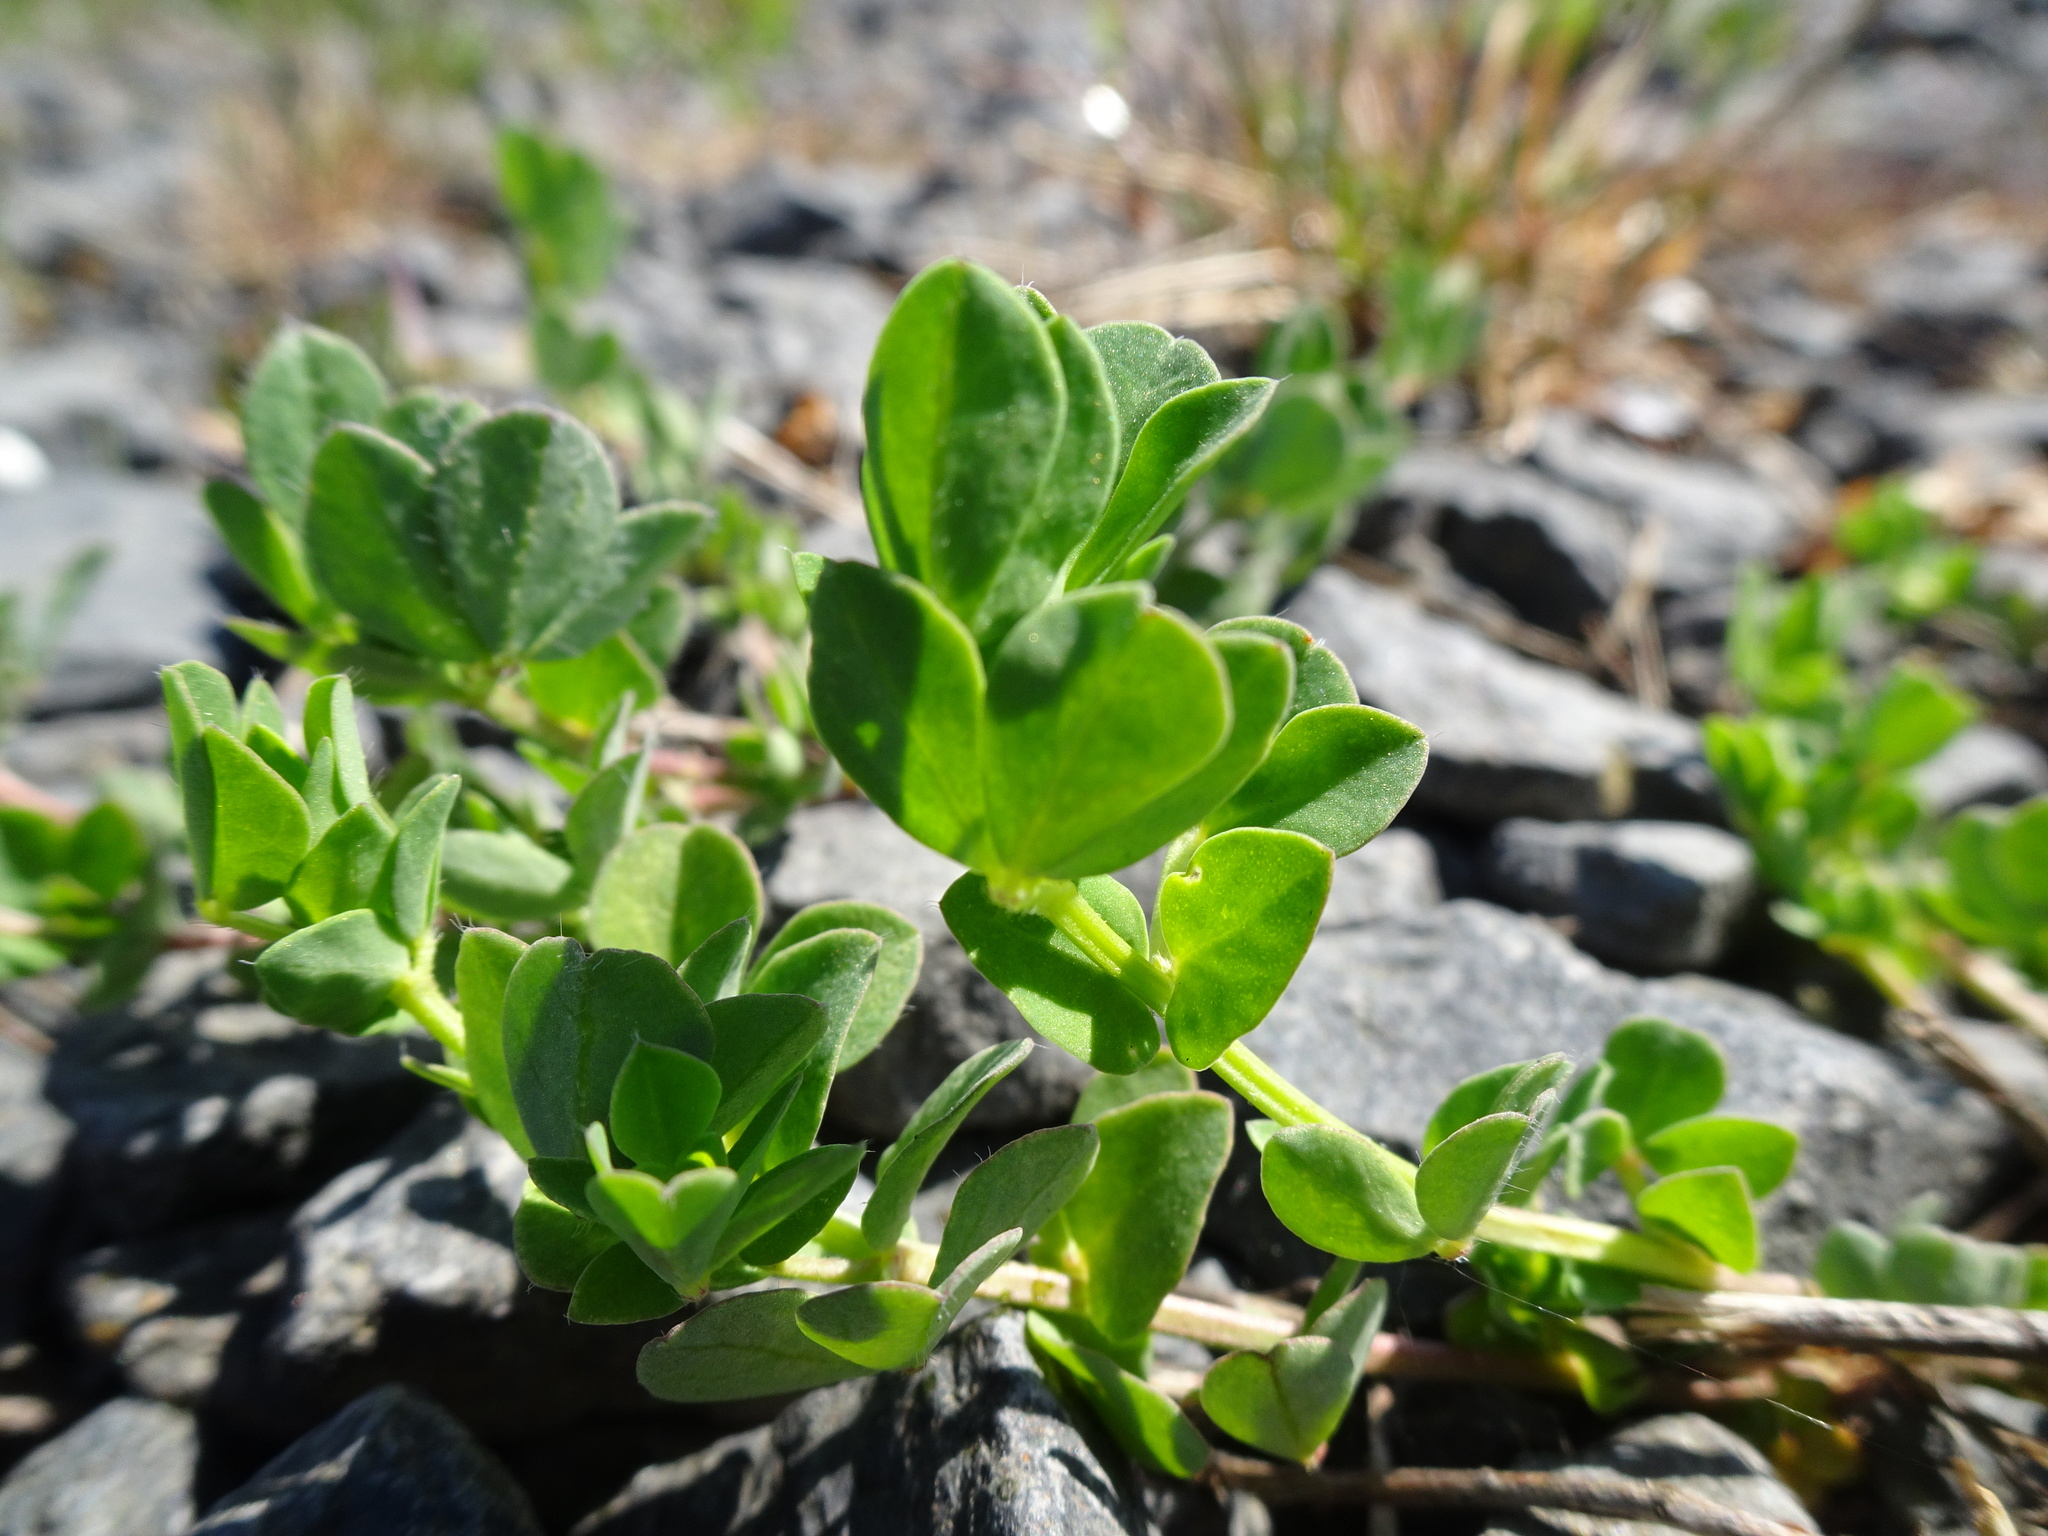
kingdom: Plantae
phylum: Tracheophyta
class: Magnoliopsida
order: Fabales
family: Fabaceae
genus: Lotus
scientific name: Lotus corniculatus
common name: Common bird's-foot-trefoil
